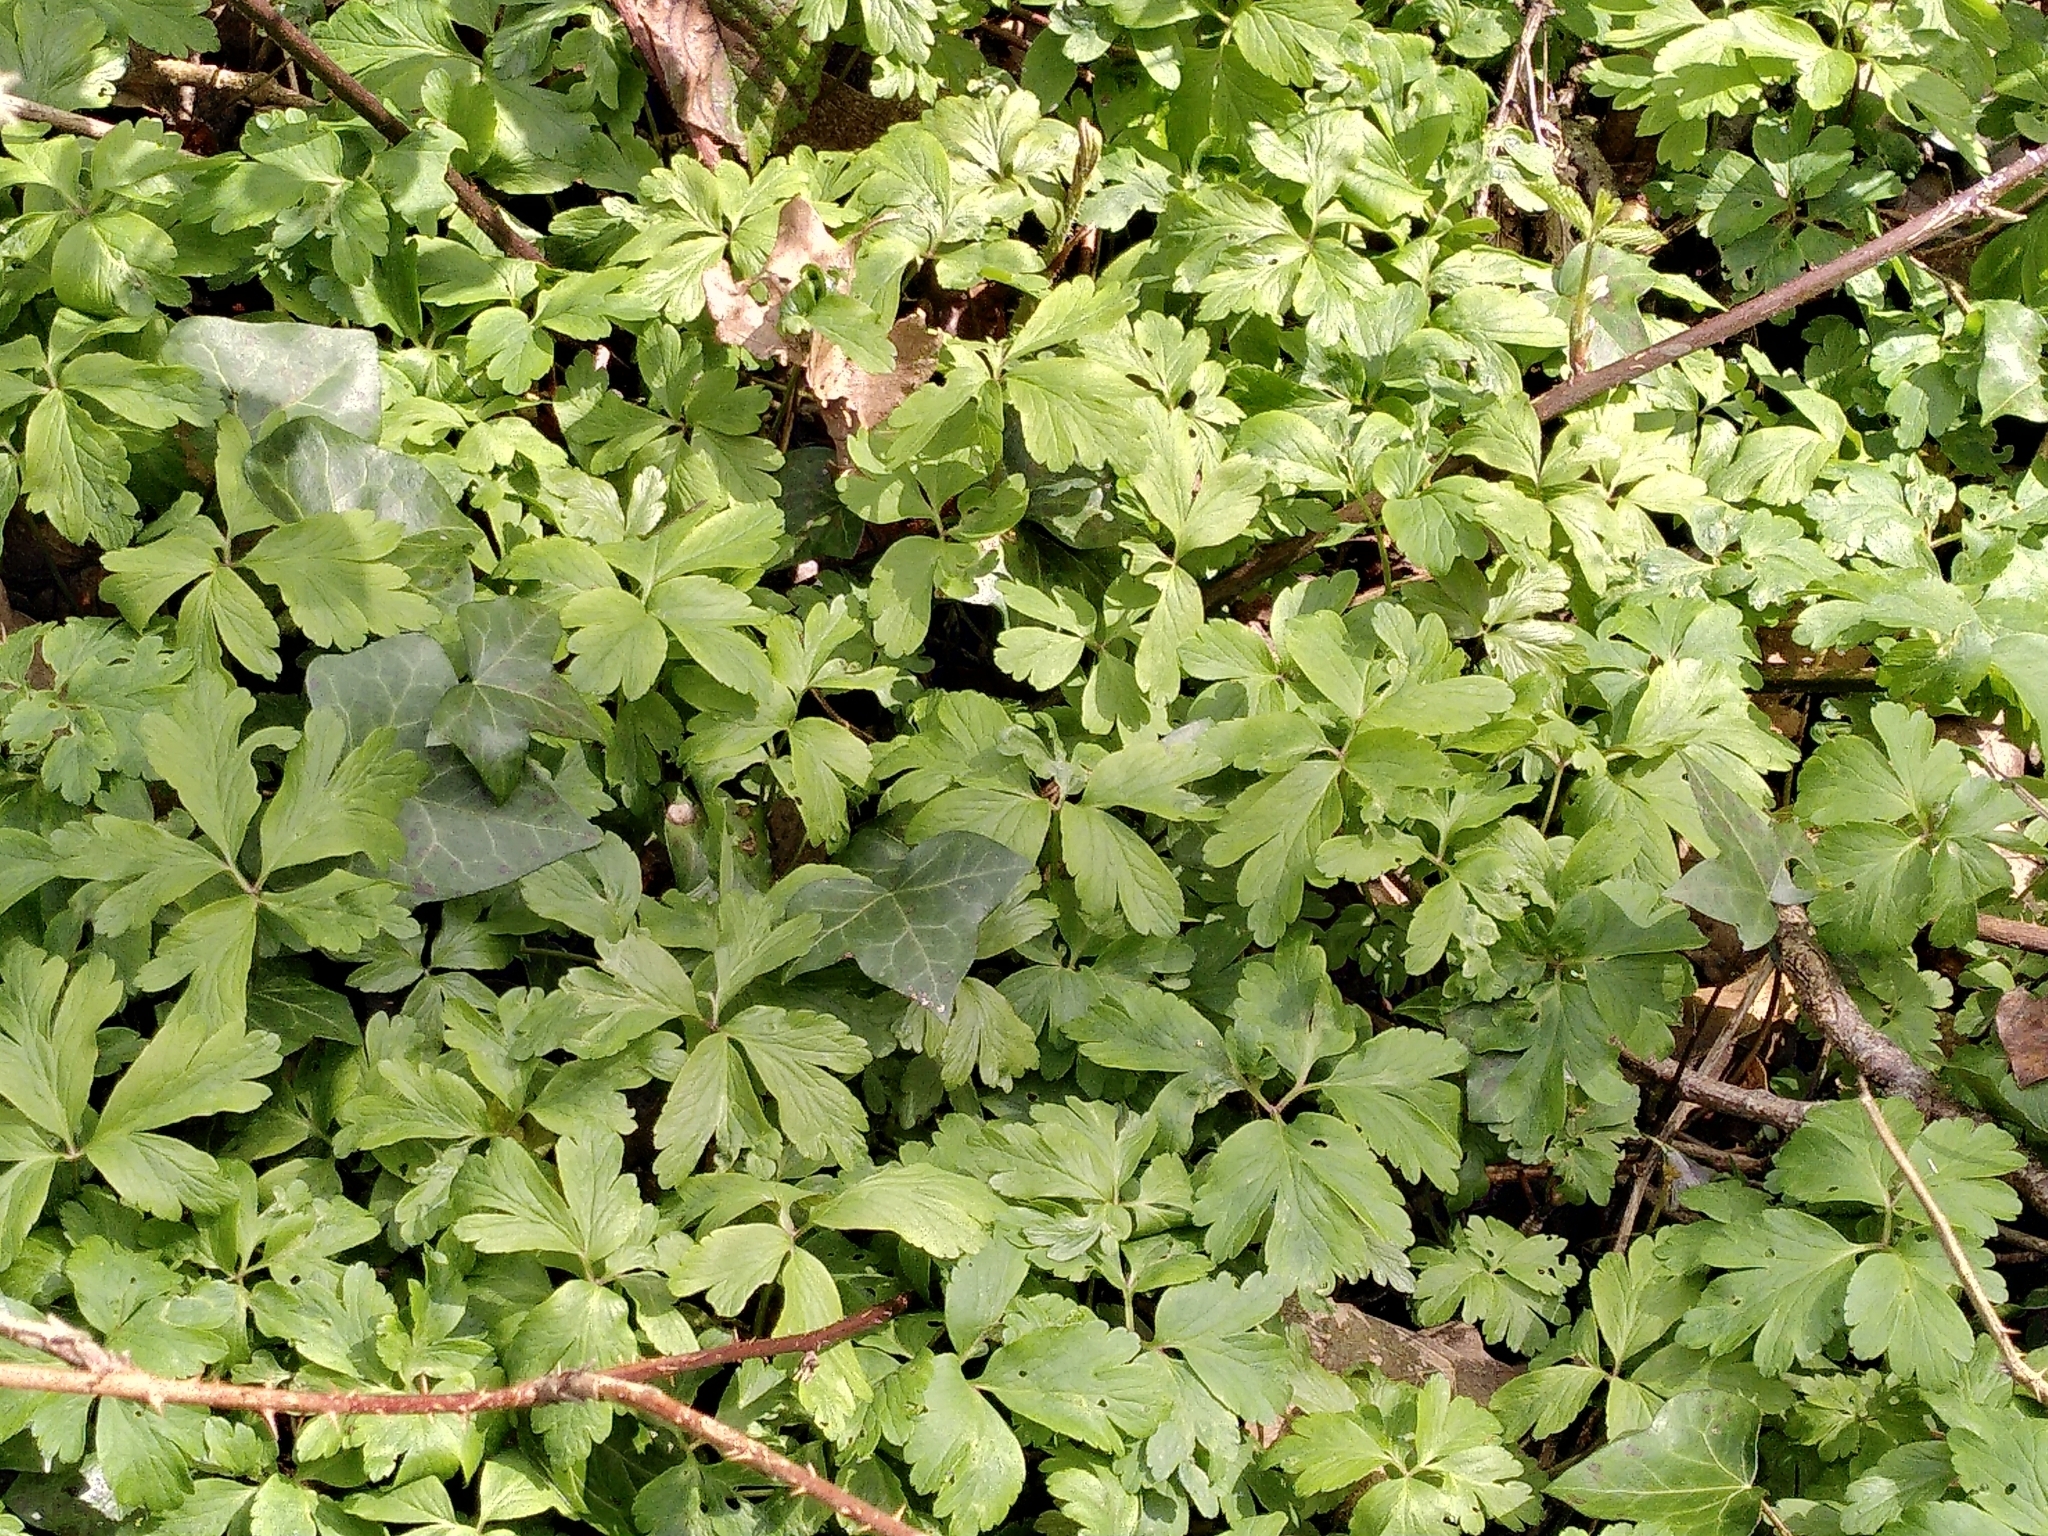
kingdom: Plantae
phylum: Tracheophyta
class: Magnoliopsida
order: Ranunculales
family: Ranunculaceae
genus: Anemone
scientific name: Anemone nemorosa
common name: Wood anemone
